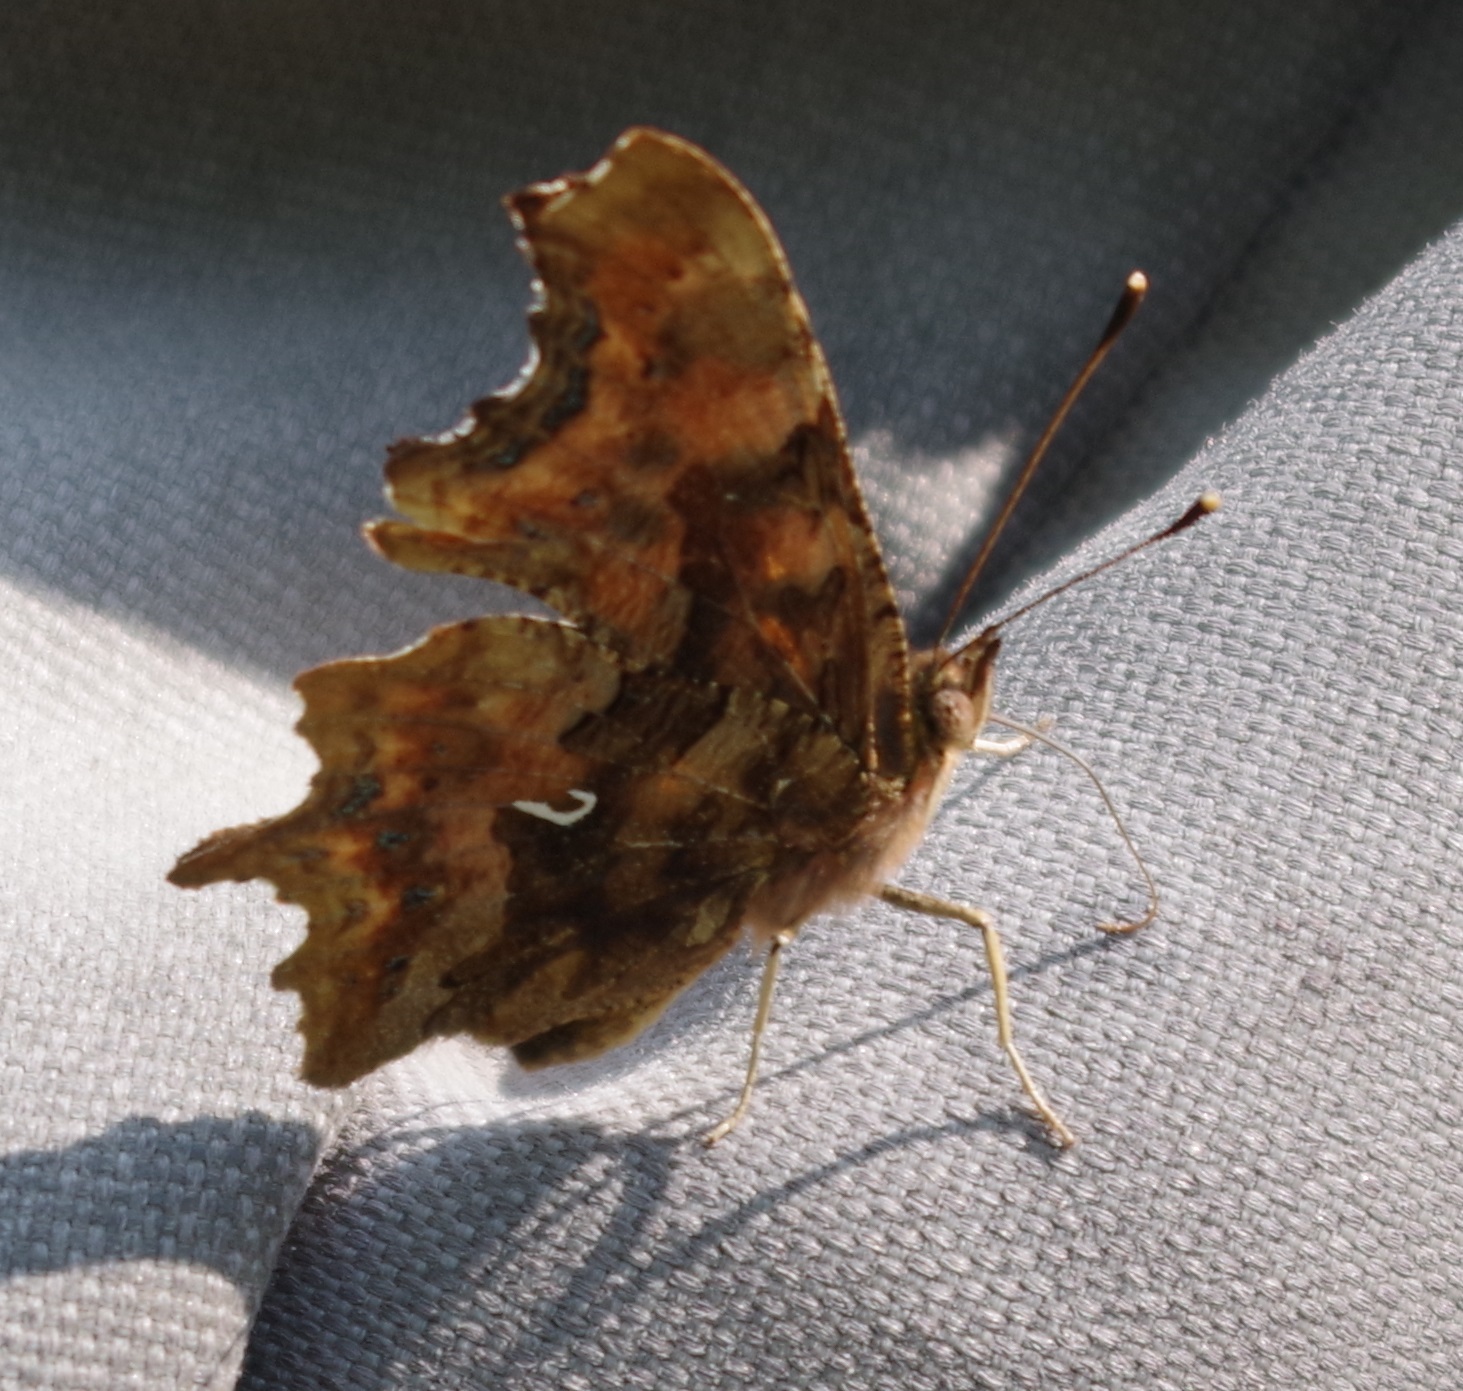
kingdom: Animalia
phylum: Arthropoda
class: Insecta
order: Lepidoptera
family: Nymphalidae
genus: Polygonia
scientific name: Polygonia c-album
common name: Comma
